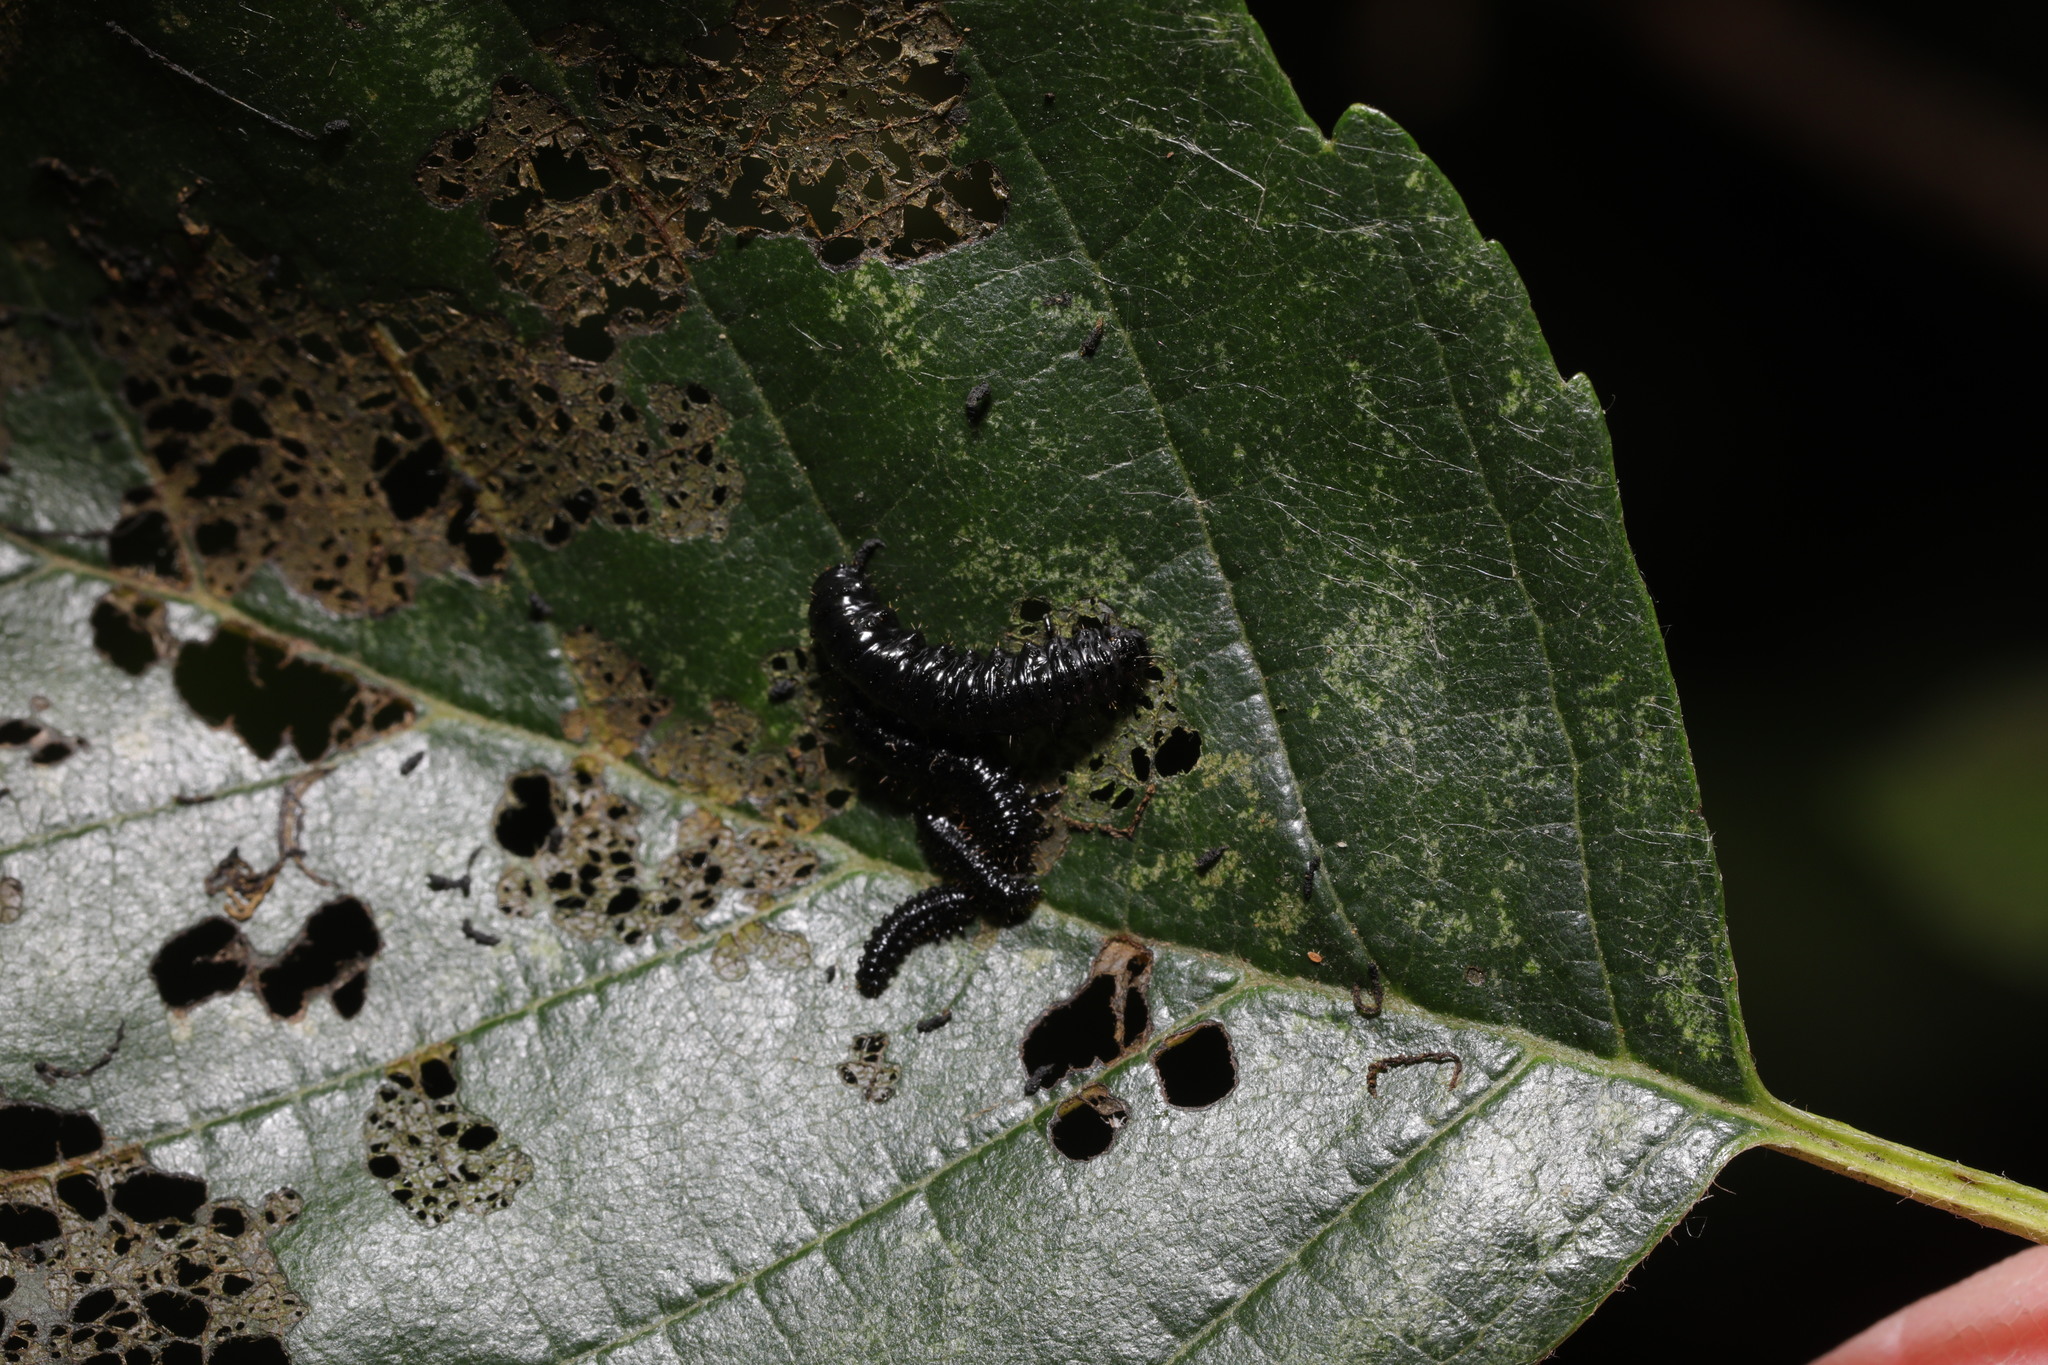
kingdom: Animalia
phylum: Arthropoda
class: Insecta
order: Coleoptera
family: Chrysomelidae
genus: Agelastica
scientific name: Agelastica alni
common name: Alder leaf beetle
